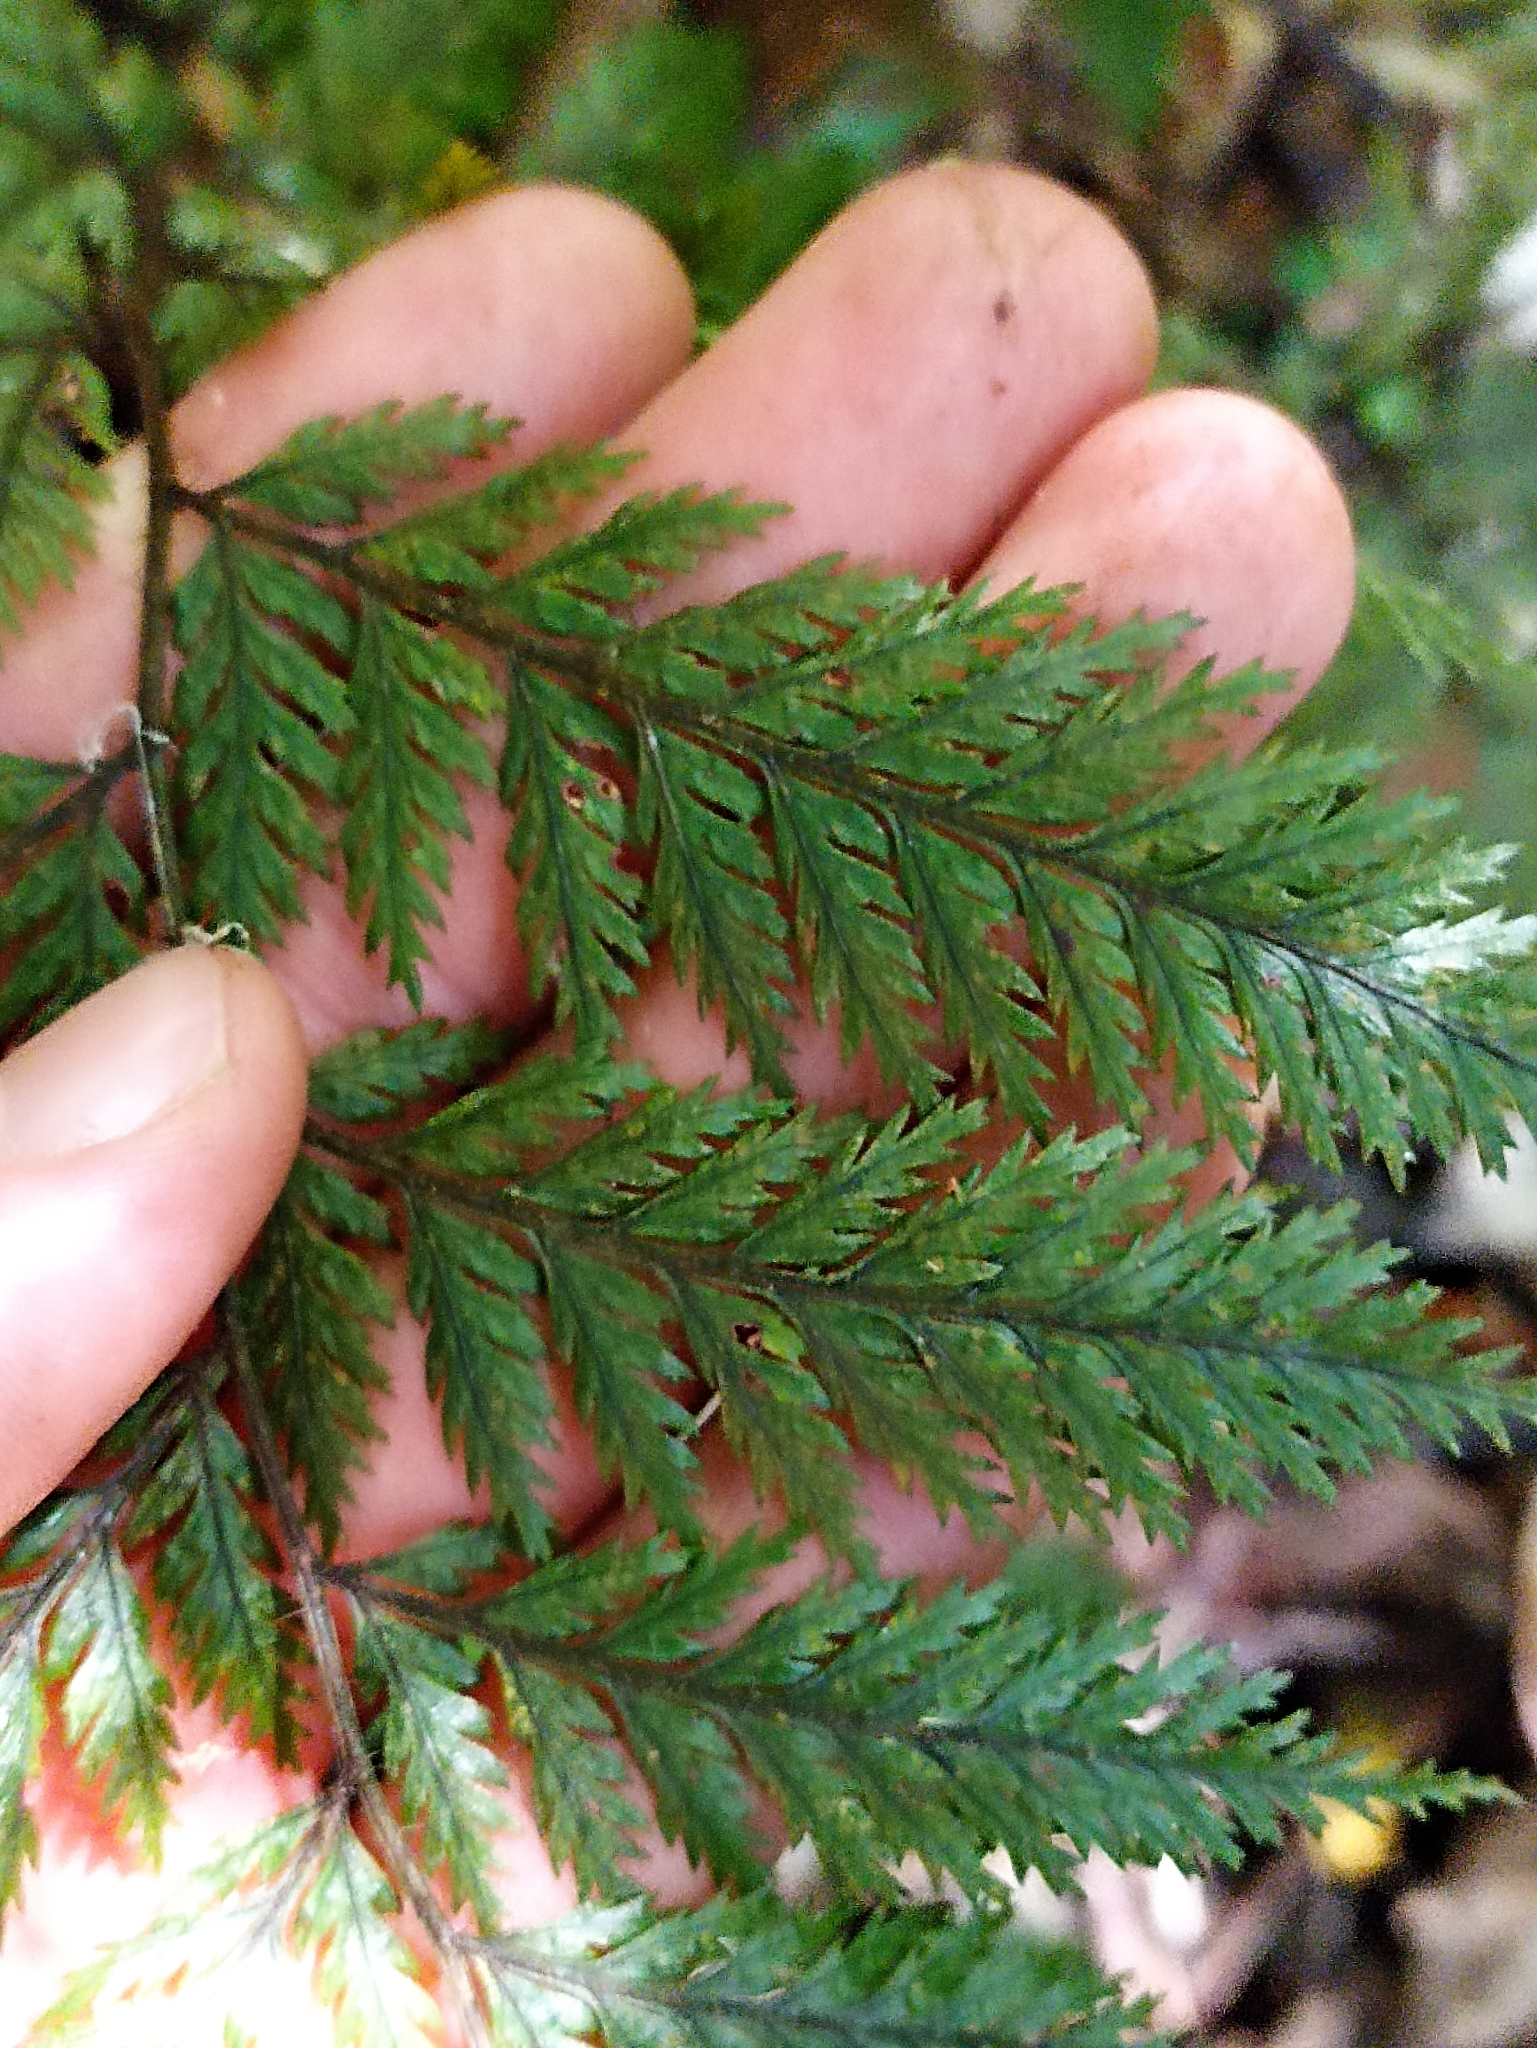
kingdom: Plantae
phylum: Tracheophyta
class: Polypodiopsida
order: Polypodiales
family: Dryopteridaceae
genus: Lastreopsis
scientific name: Lastreopsis hispida
